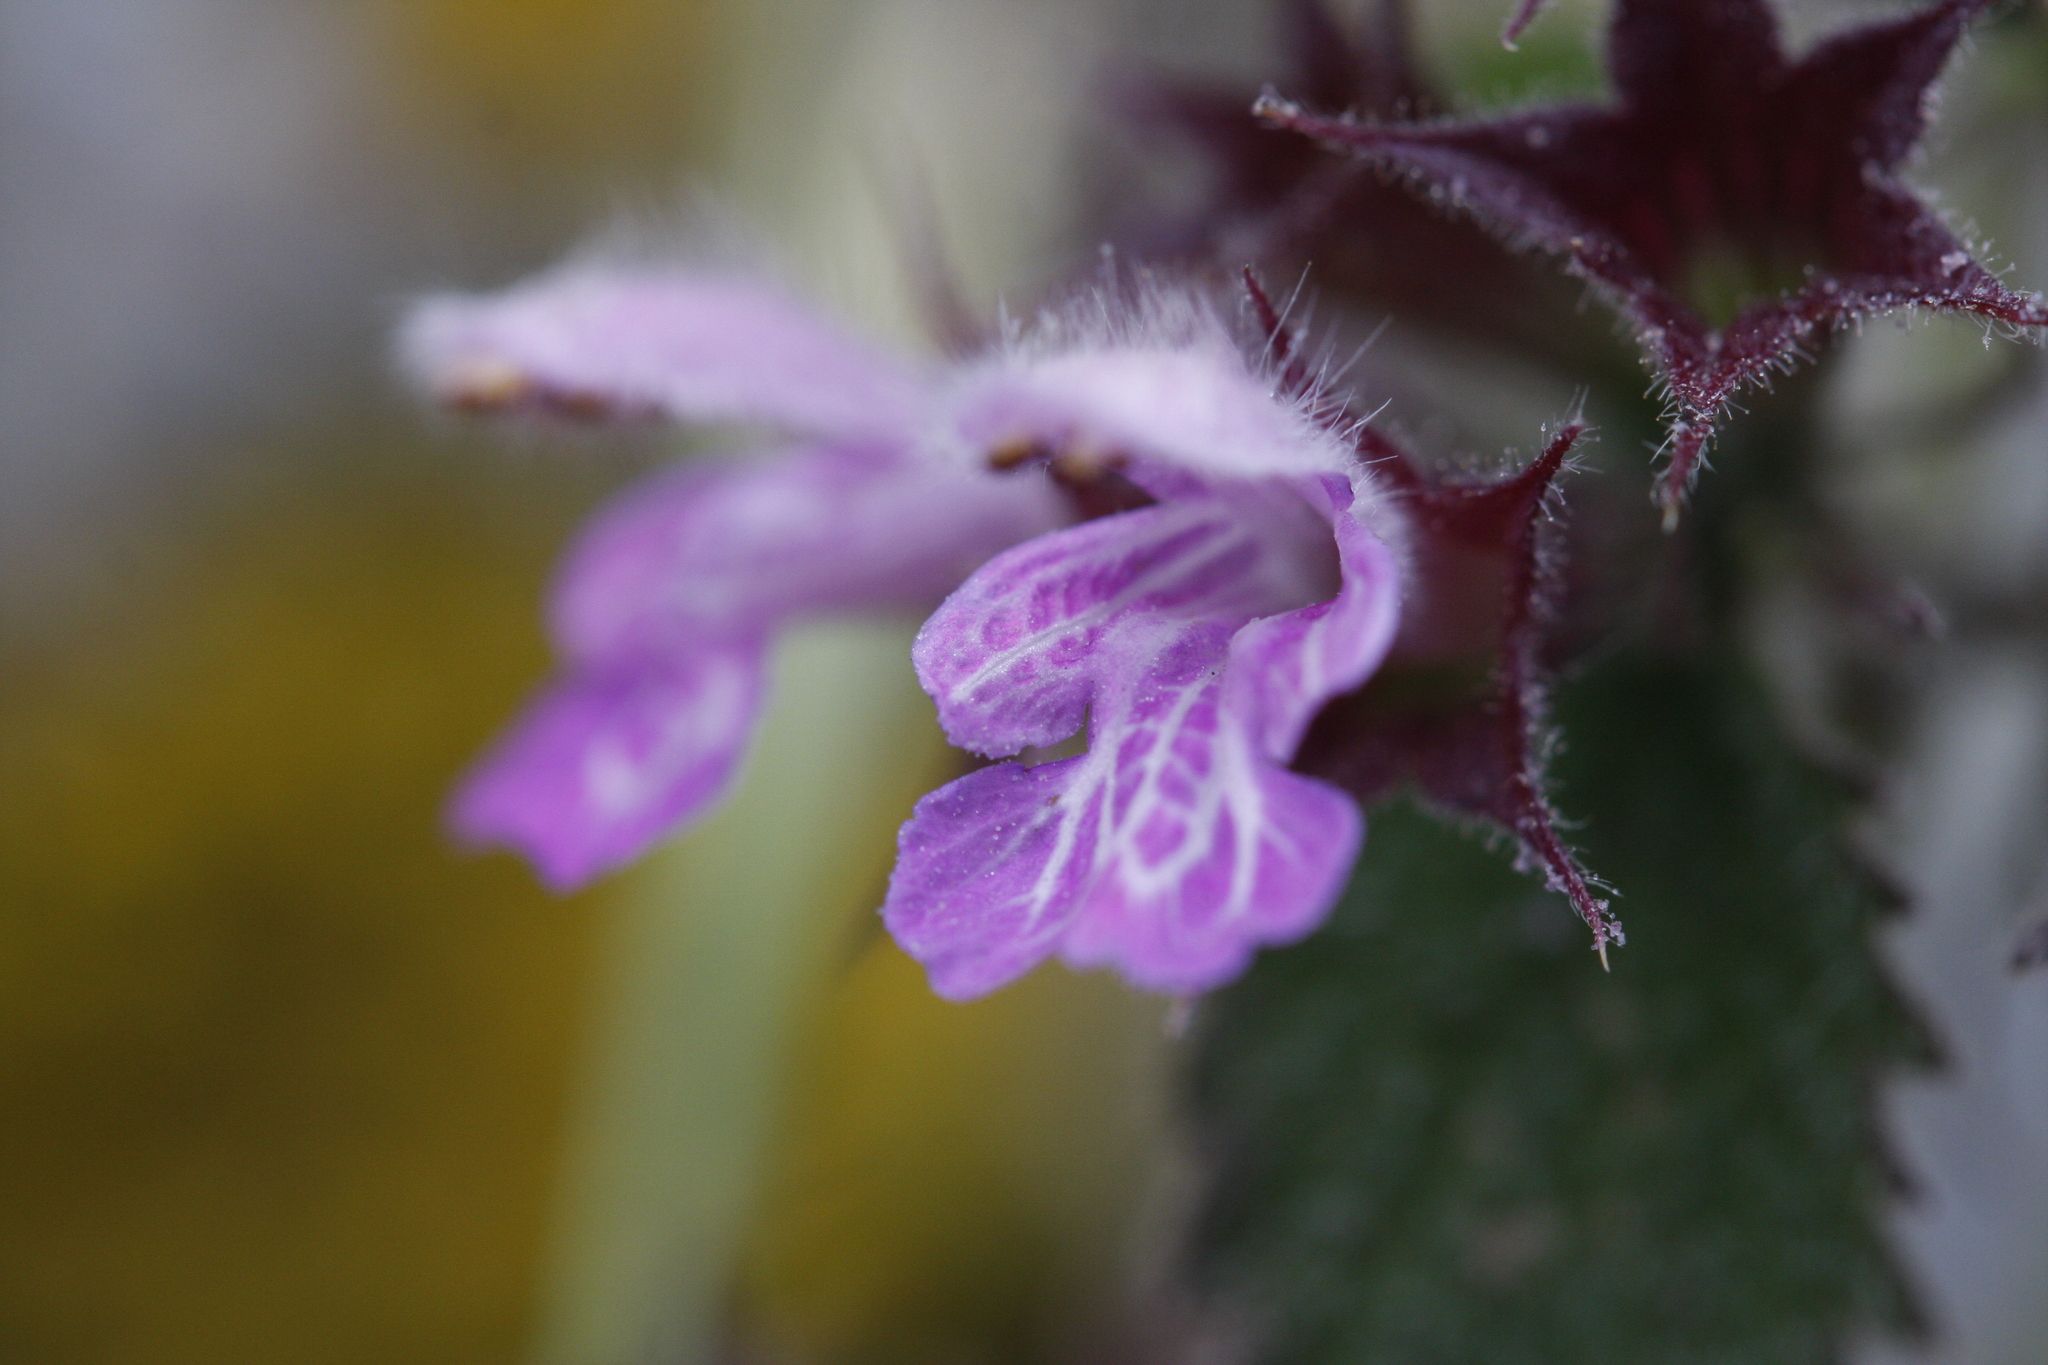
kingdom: Plantae
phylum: Tracheophyta
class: Magnoliopsida
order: Lamiales
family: Lamiaceae
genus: Ballota
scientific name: Ballota nigra
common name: Black horehound
